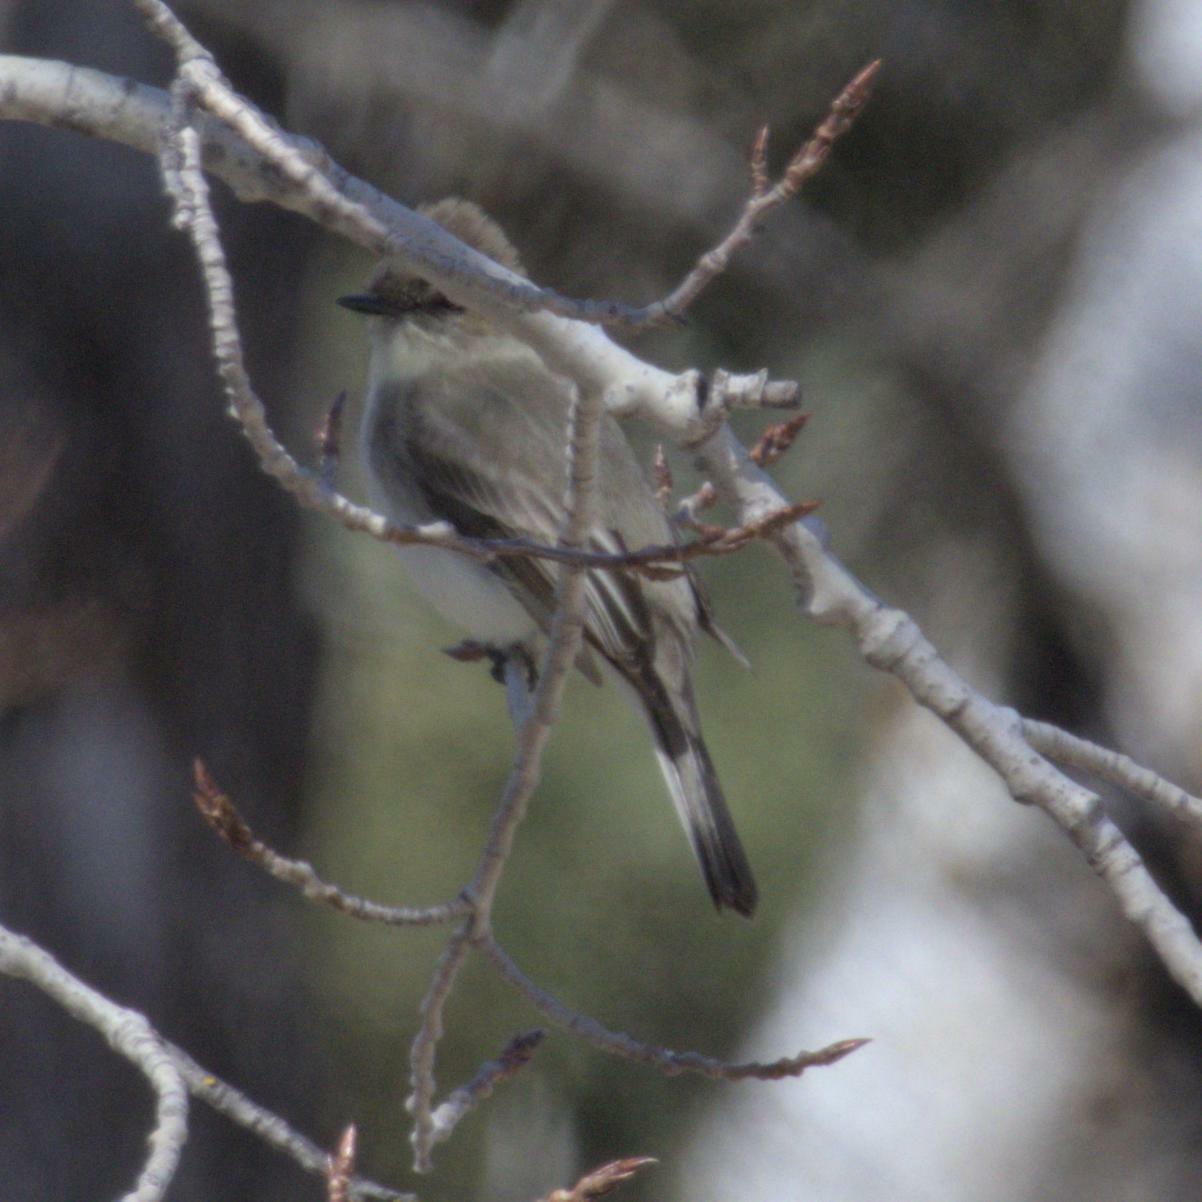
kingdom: Animalia
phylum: Chordata
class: Aves
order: Passeriformes
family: Tyrannidae
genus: Sayornis
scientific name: Sayornis phoebe
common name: Eastern phoebe
